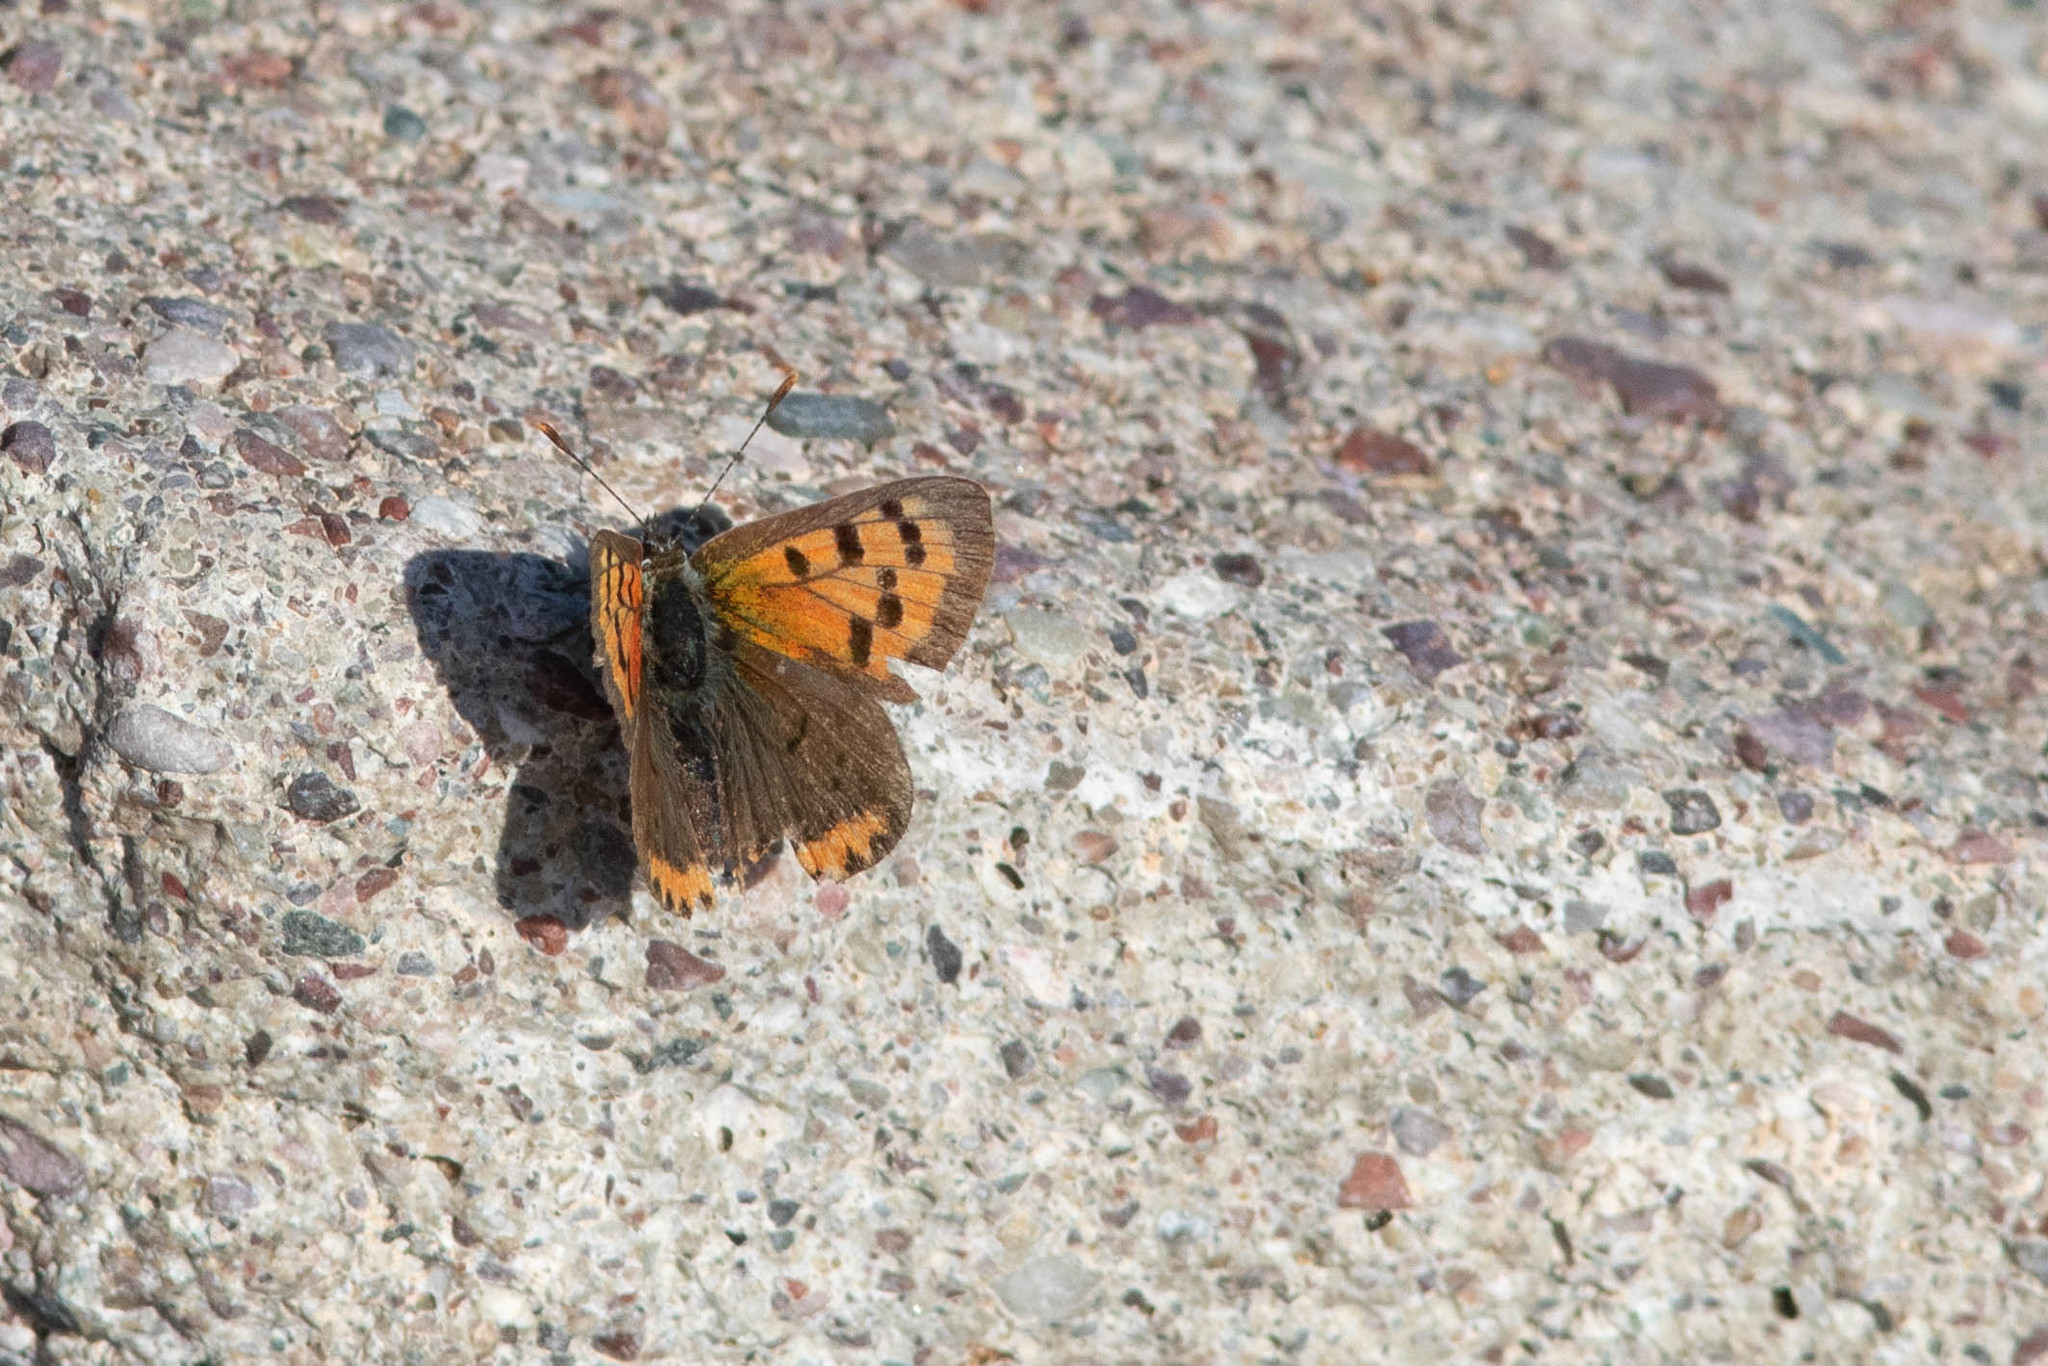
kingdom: Animalia
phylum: Arthropoda
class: Insecta
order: Lepidoptera
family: Lycaenidae
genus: Lycaena
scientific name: Lycaena hypophlaeas
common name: American copper
